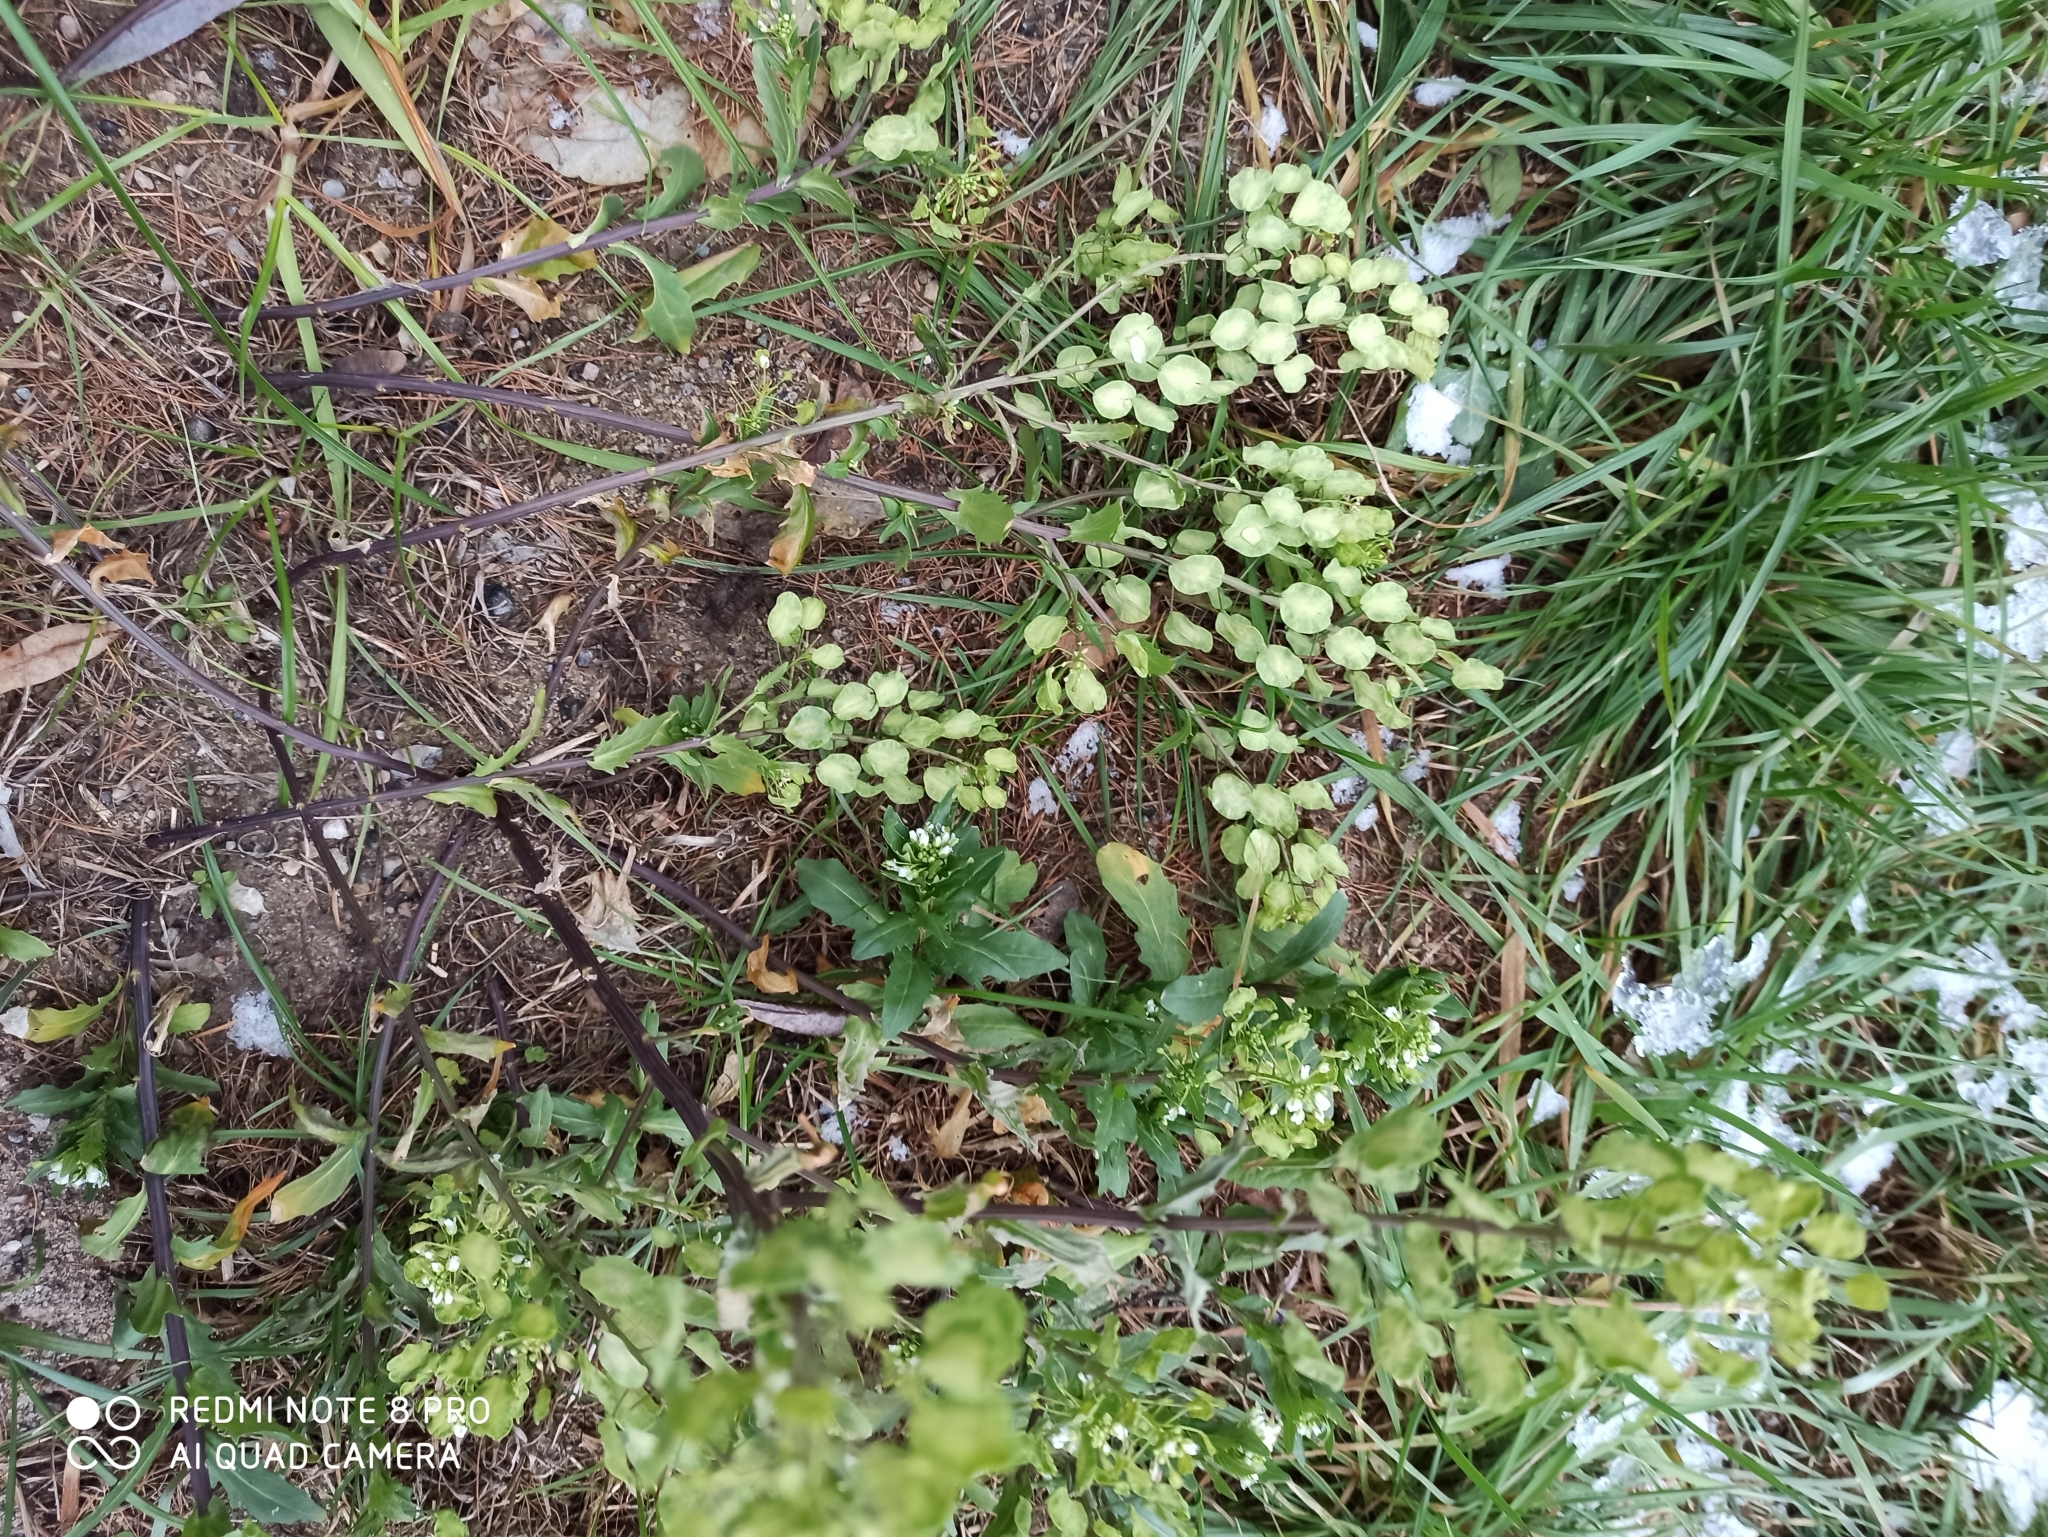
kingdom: Plantae
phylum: Tracheophyta
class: Magnoliopsida
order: Brassicales
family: Brassicaceae
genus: Thlaspi
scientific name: Thlaspi arvense
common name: Field pennycress
